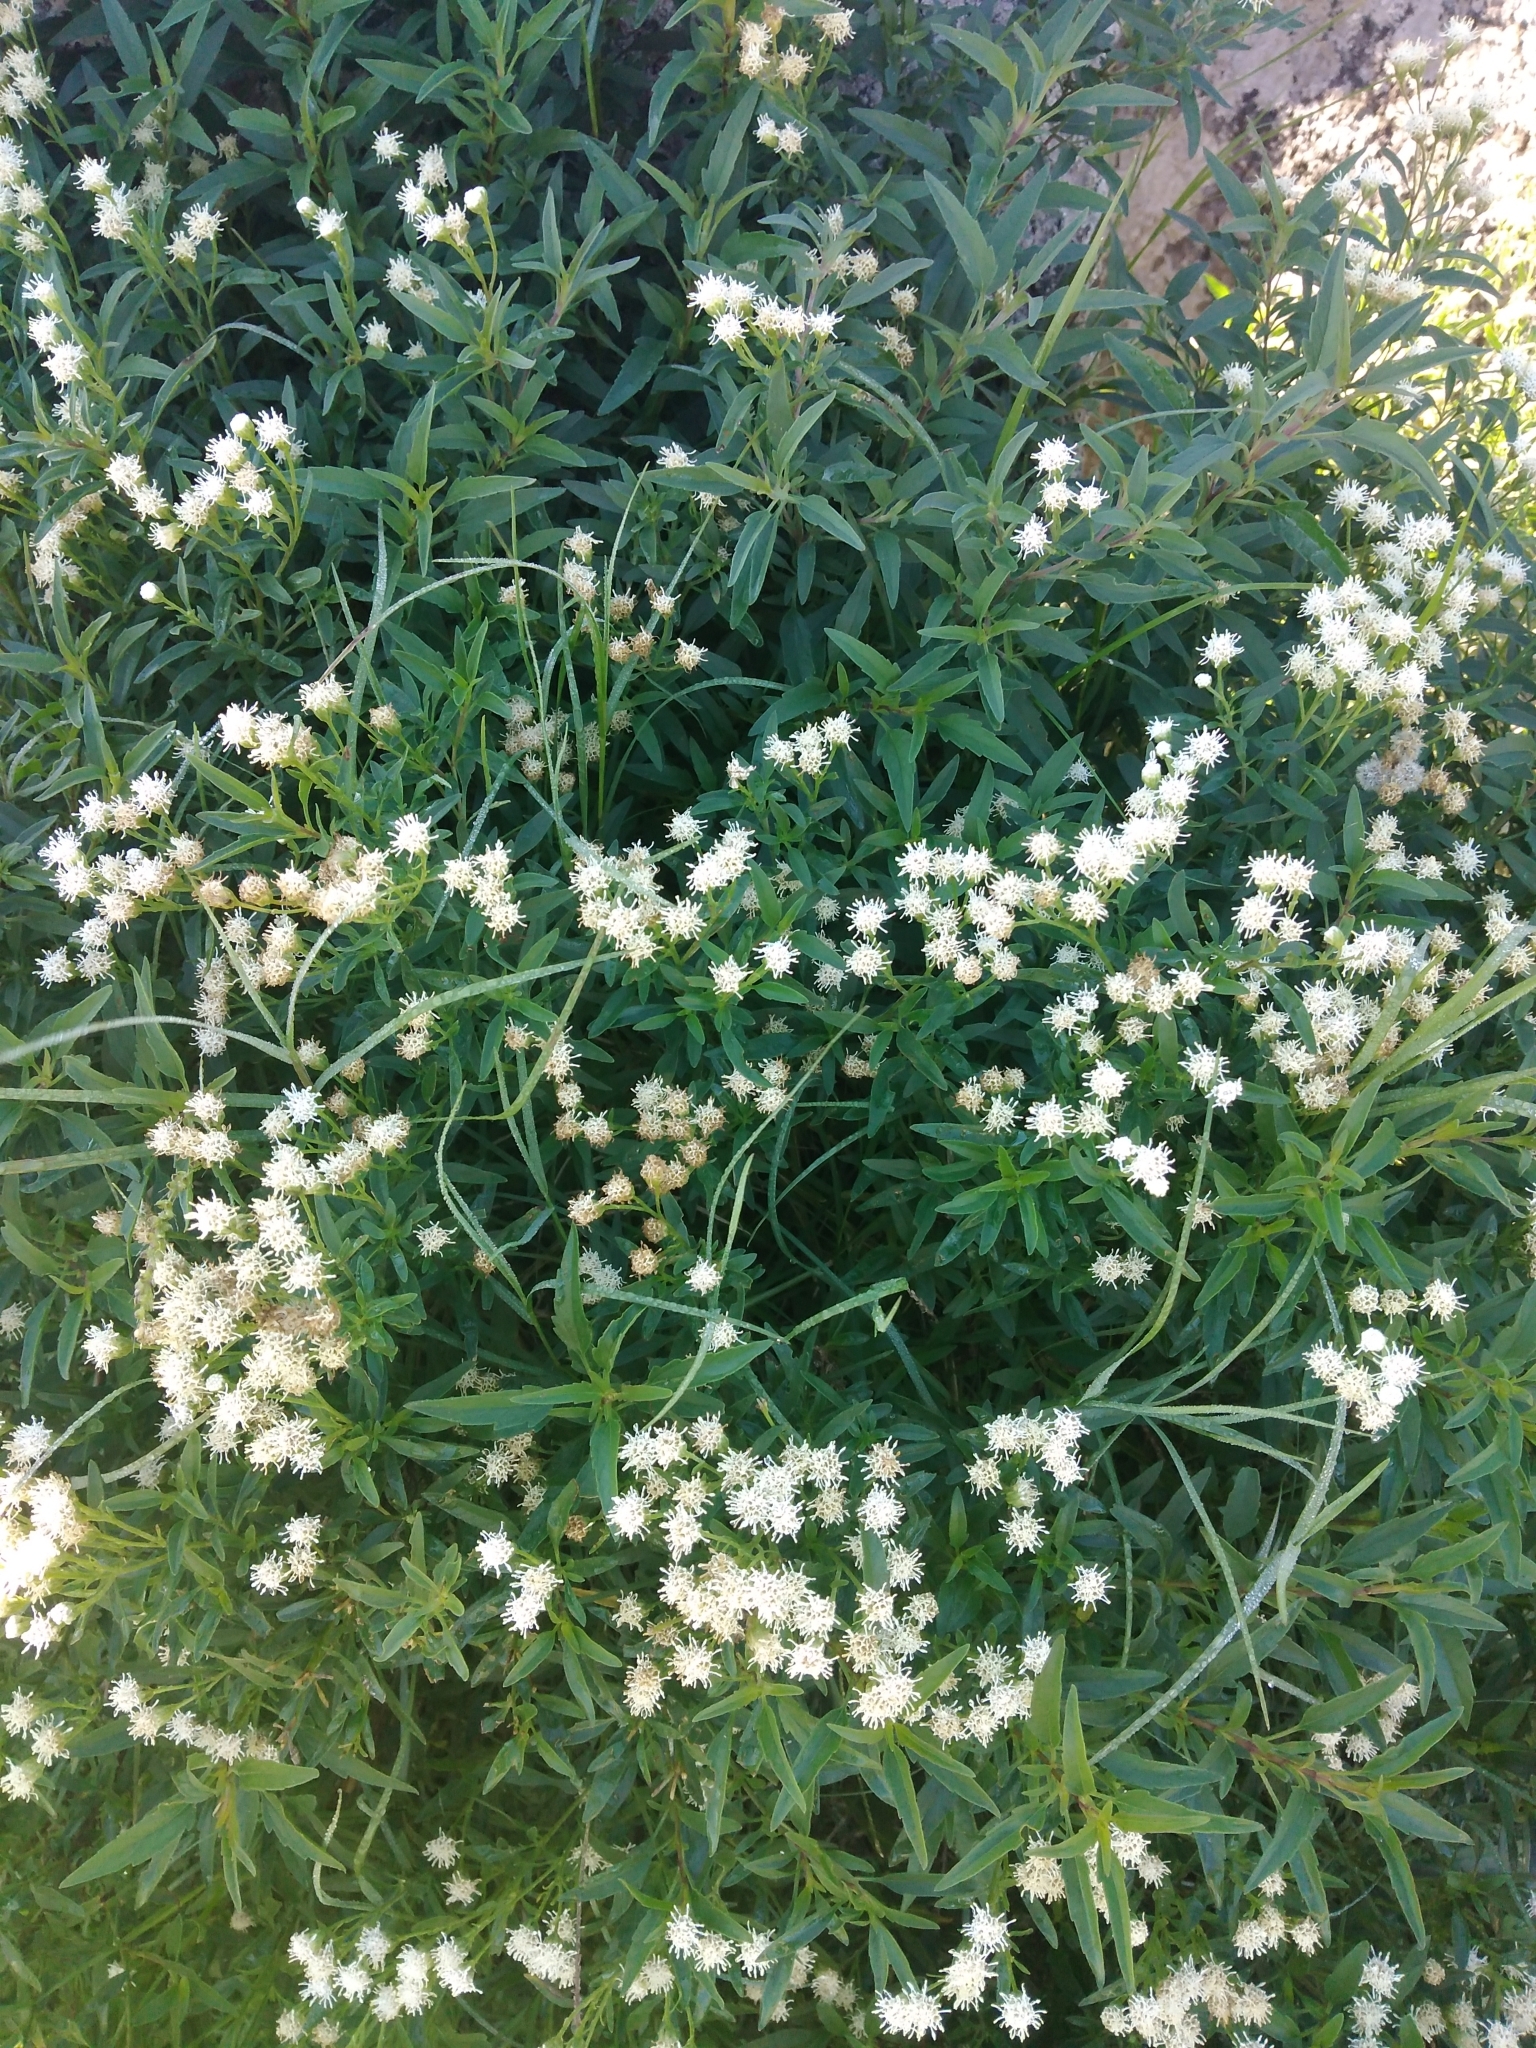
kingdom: Plantae
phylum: Tracheophyta
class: Magnoliopsida
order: Asterales
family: Asteraceae
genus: Hatschbachiella
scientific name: Hatschbachiella tweedieana
